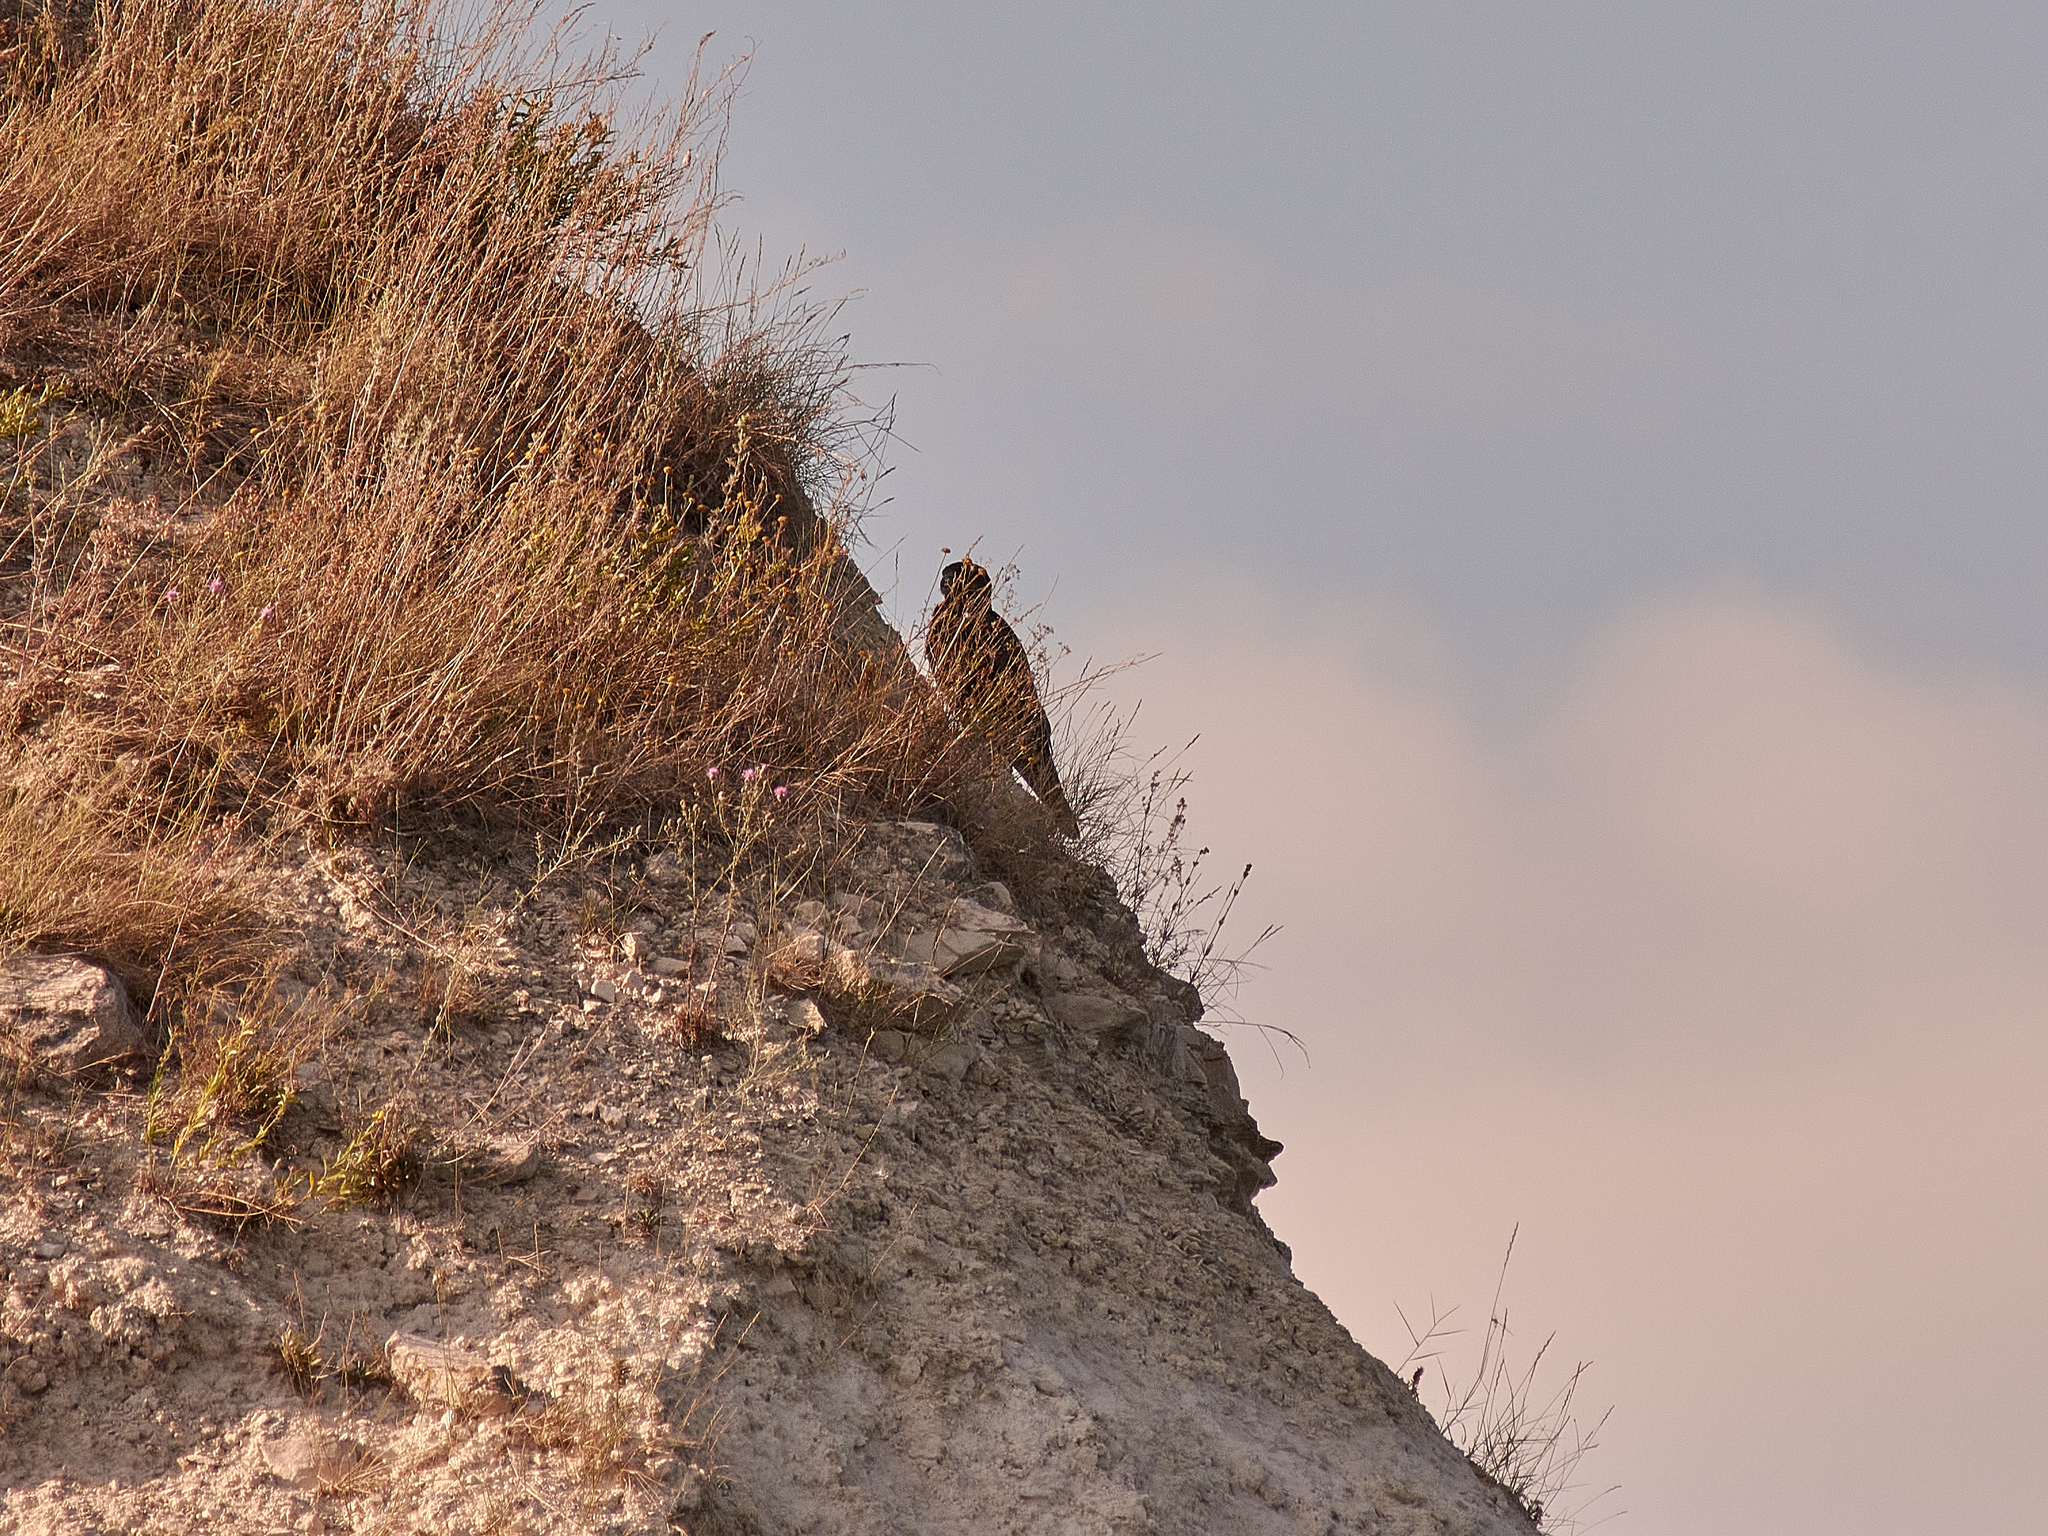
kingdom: Animalia
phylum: Chordata
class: Aves
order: Falconiformes
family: Falconidae
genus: Falco
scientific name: Falco cherrug
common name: Saker falcon
